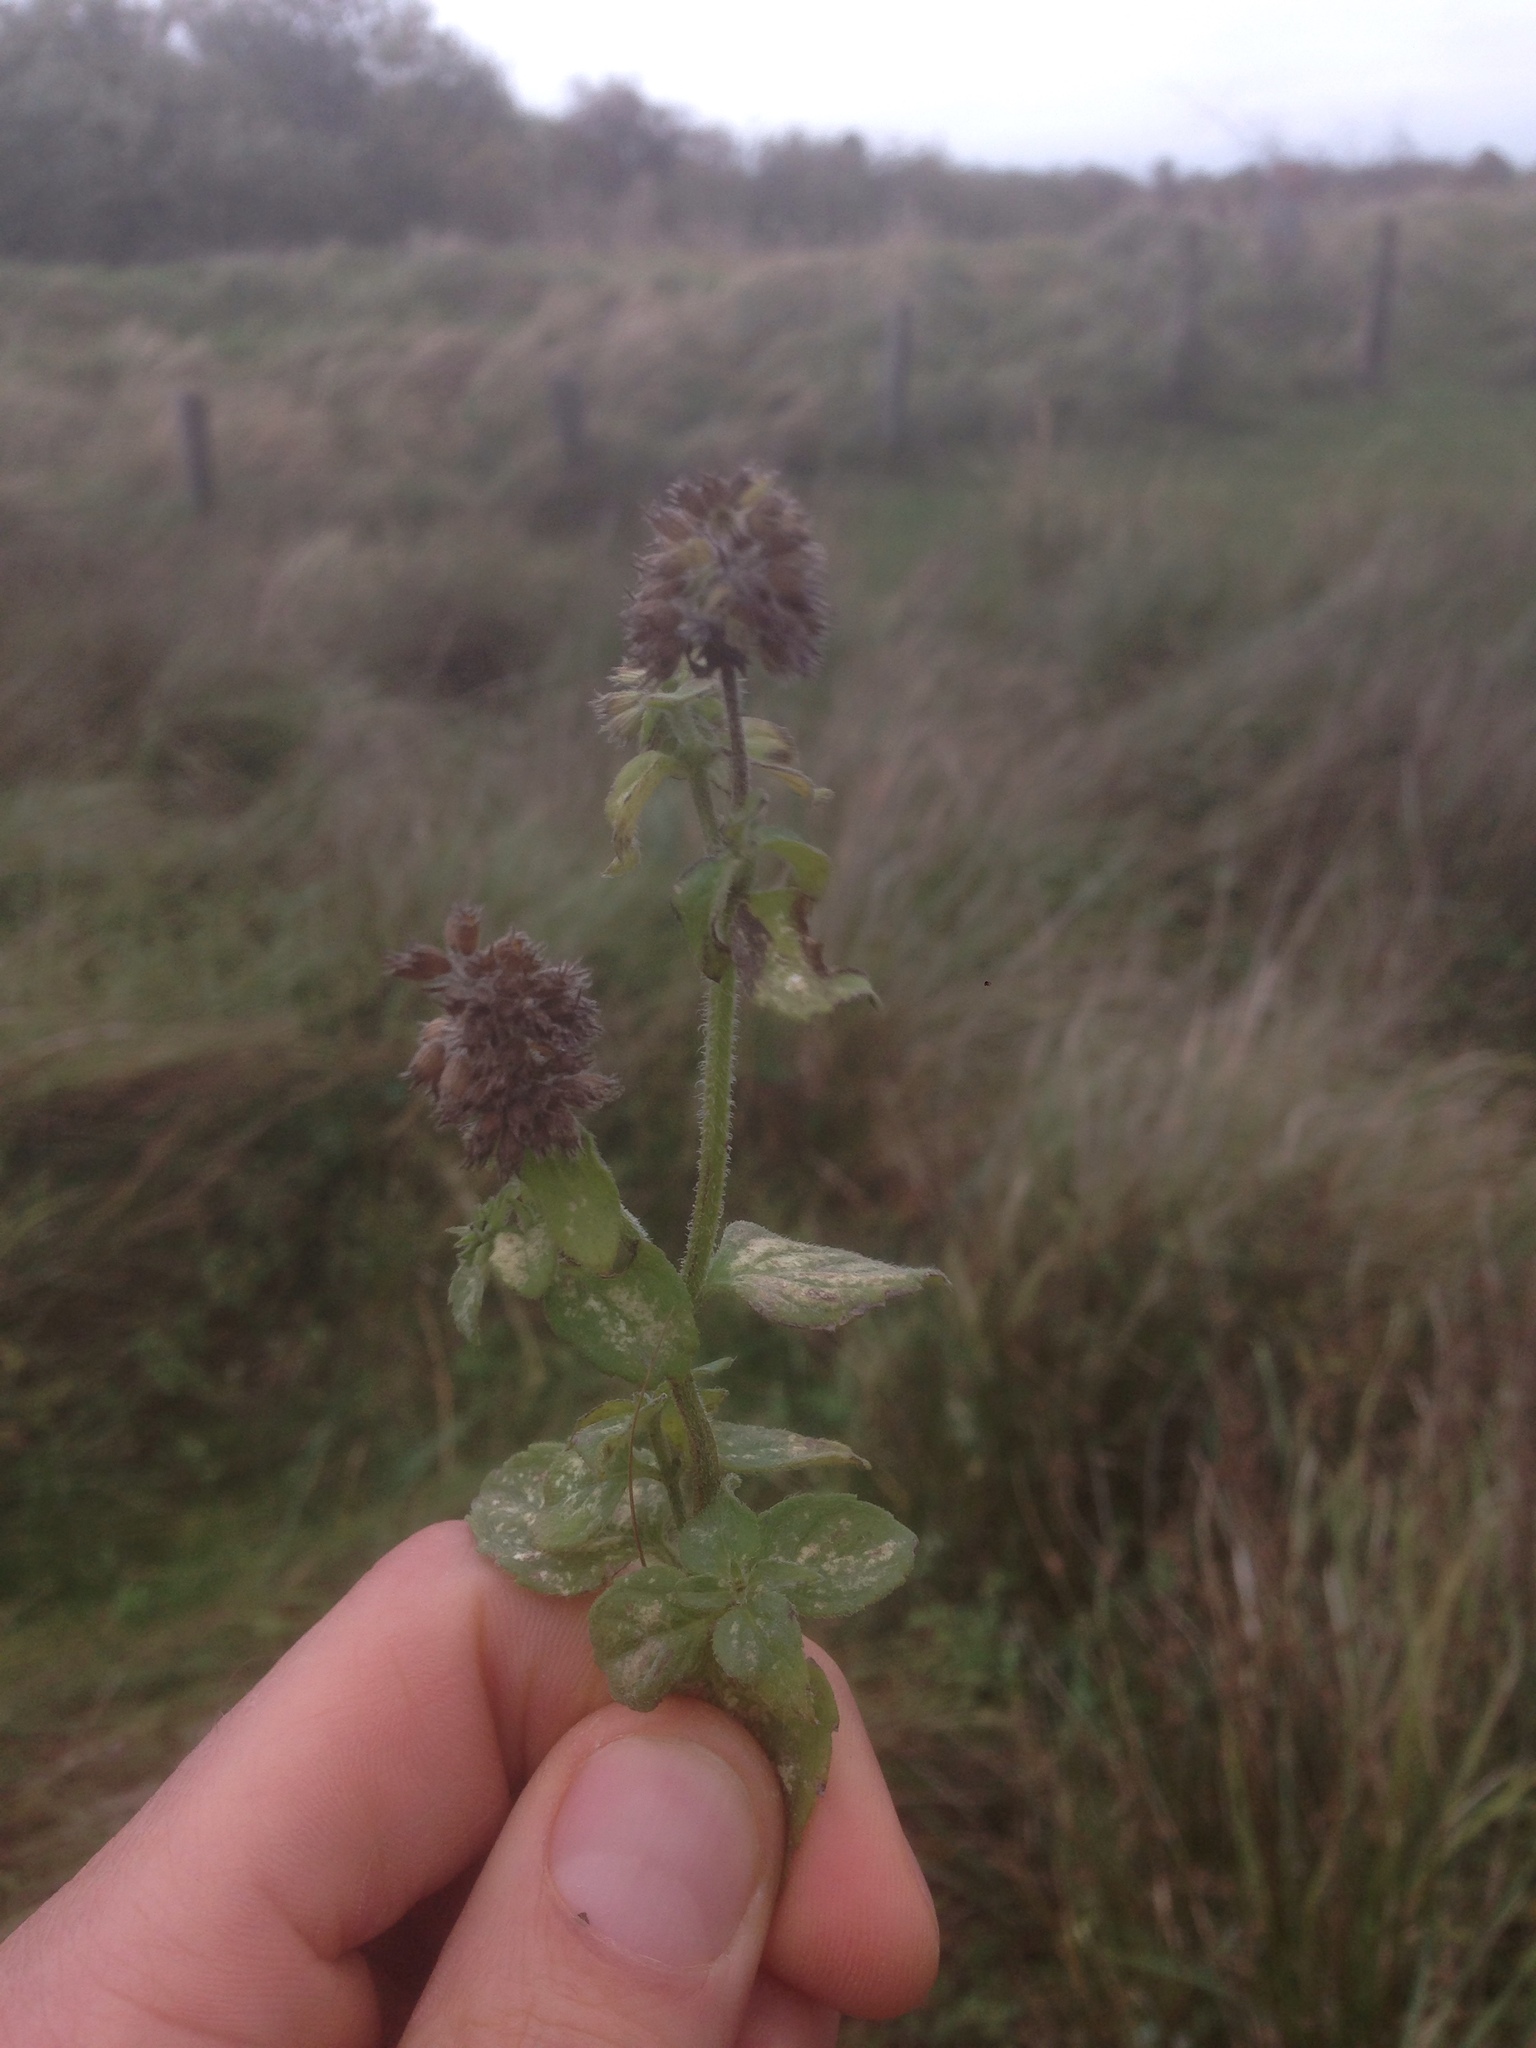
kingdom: Plantae
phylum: Tracheophyta
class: Magnoliopsida
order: Lamiales
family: Lamiaceae
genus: Mentha
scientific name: Mentha aquatica
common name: Water mint
